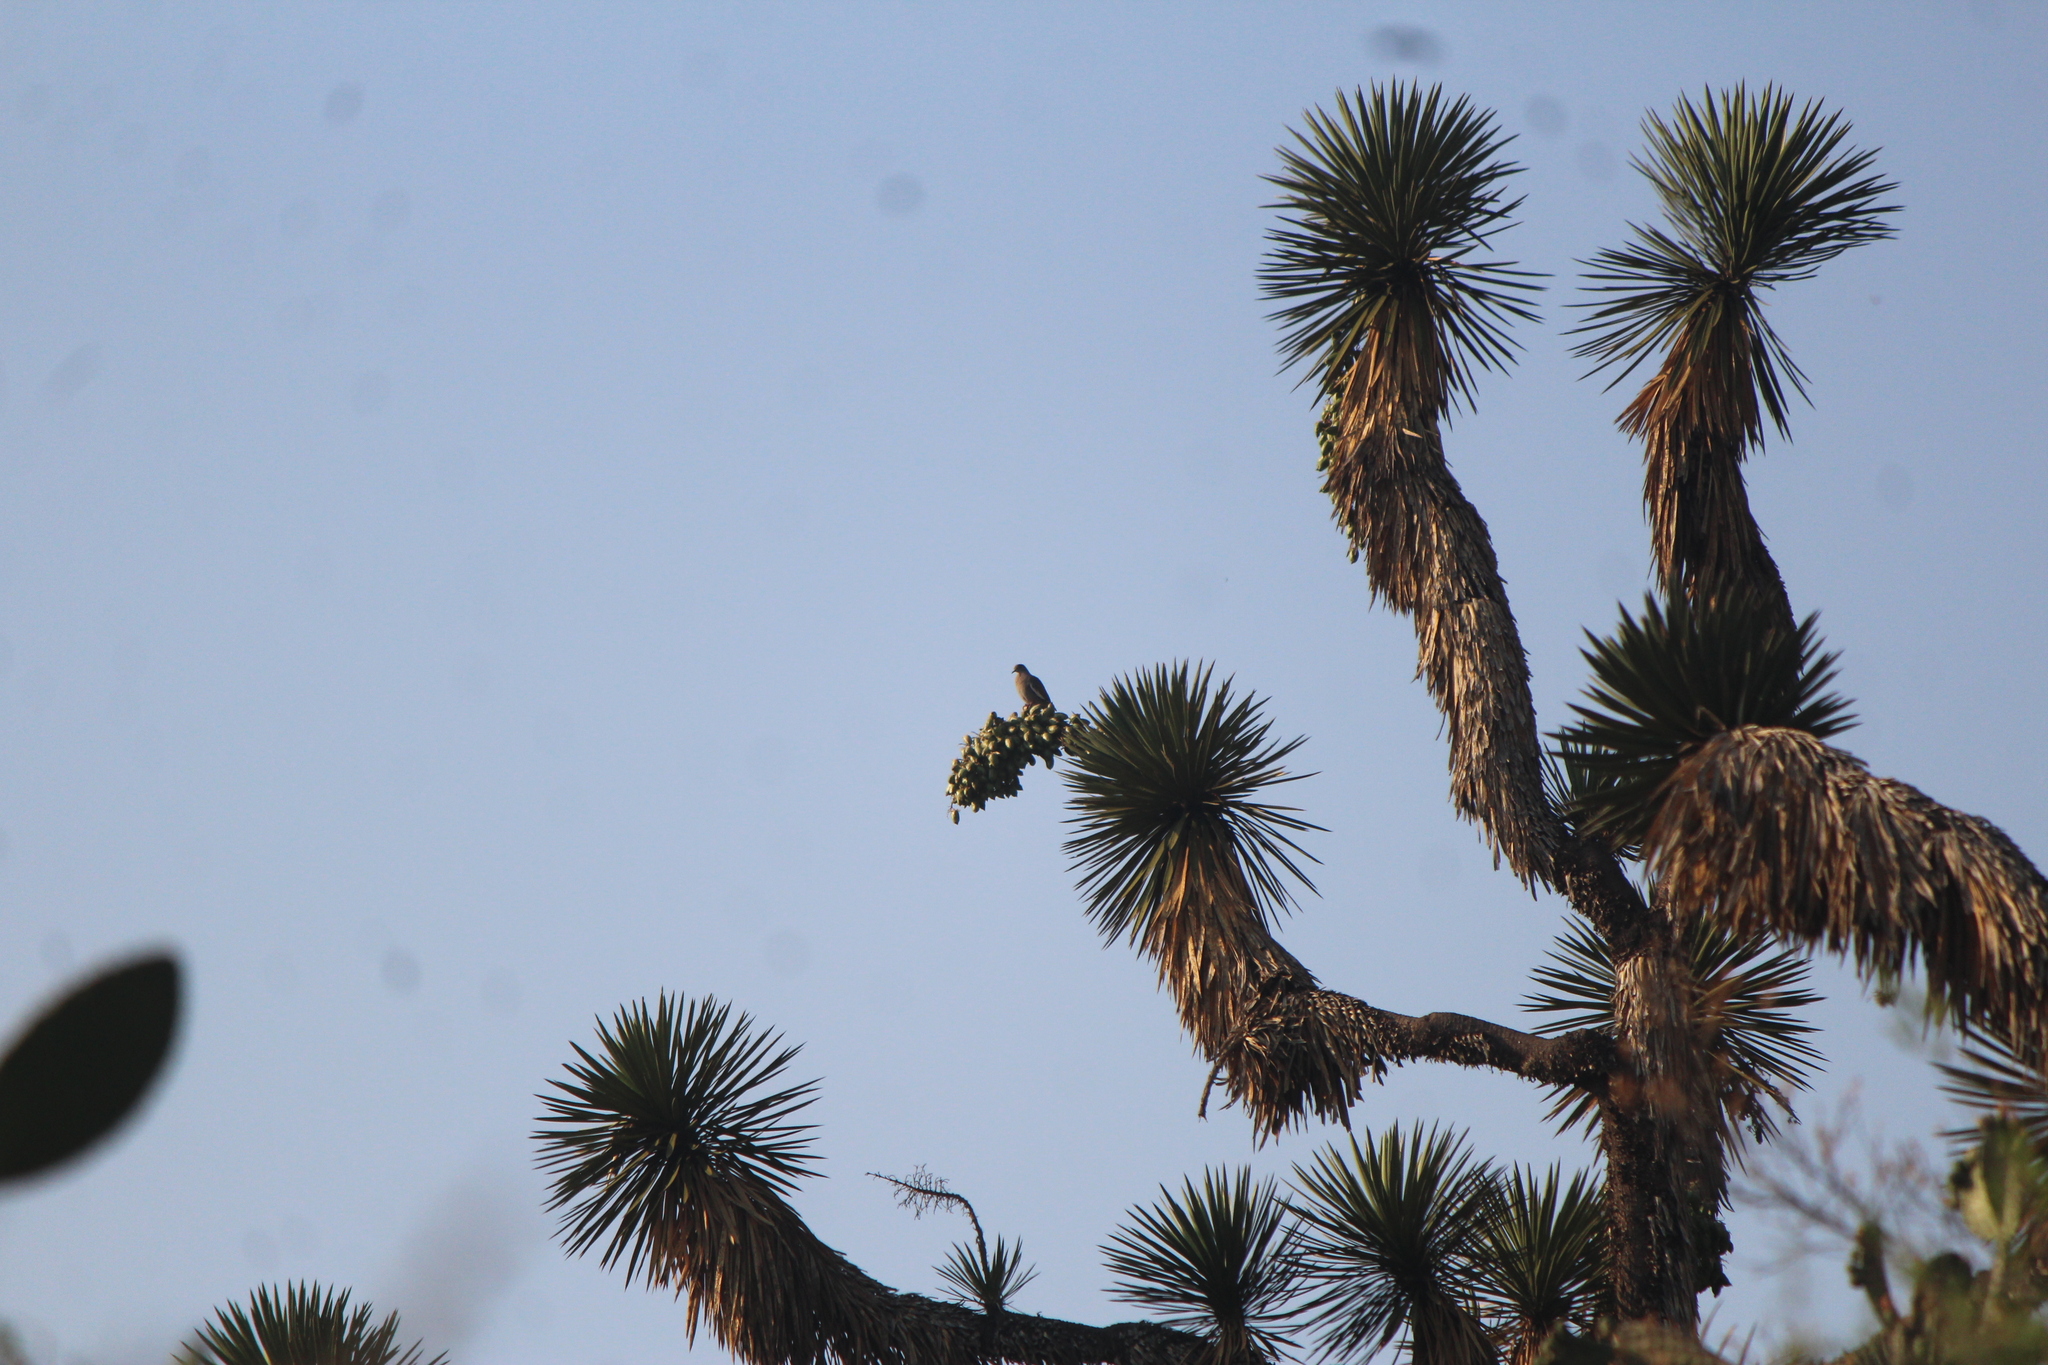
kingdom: Animalia
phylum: Chordata
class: Aves
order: Columbiformes
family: Columbidae
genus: Zenaida
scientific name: Zenaida asiatica
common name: White-winged dove
